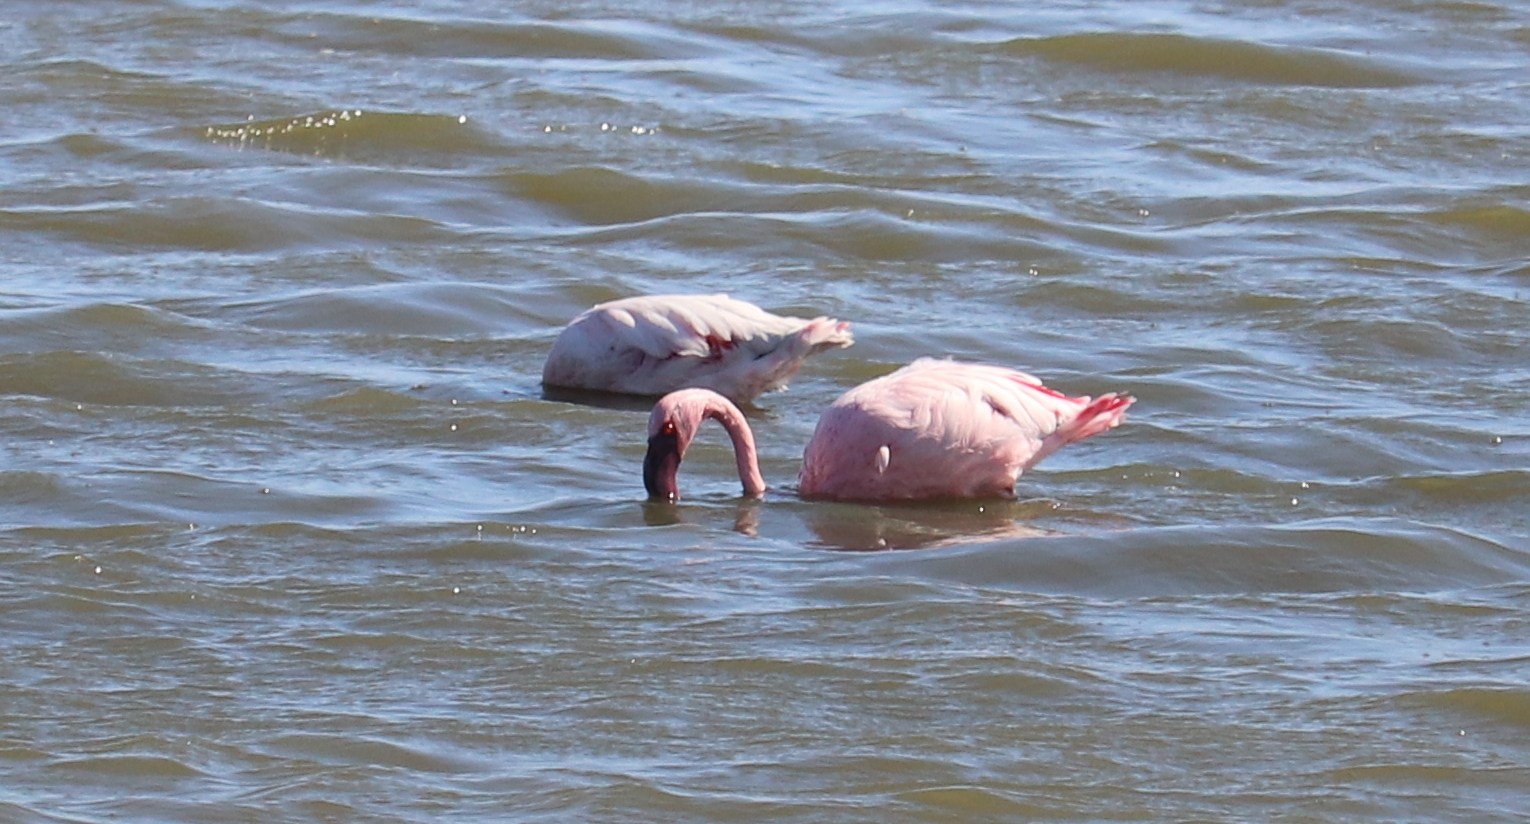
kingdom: Animalia
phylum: Chordata
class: Aves
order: Phoenicopteriformes
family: Phoenicopteridae
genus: Phoeniconaias
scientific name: Phoeniconaias minor
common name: Lesser flamingo
